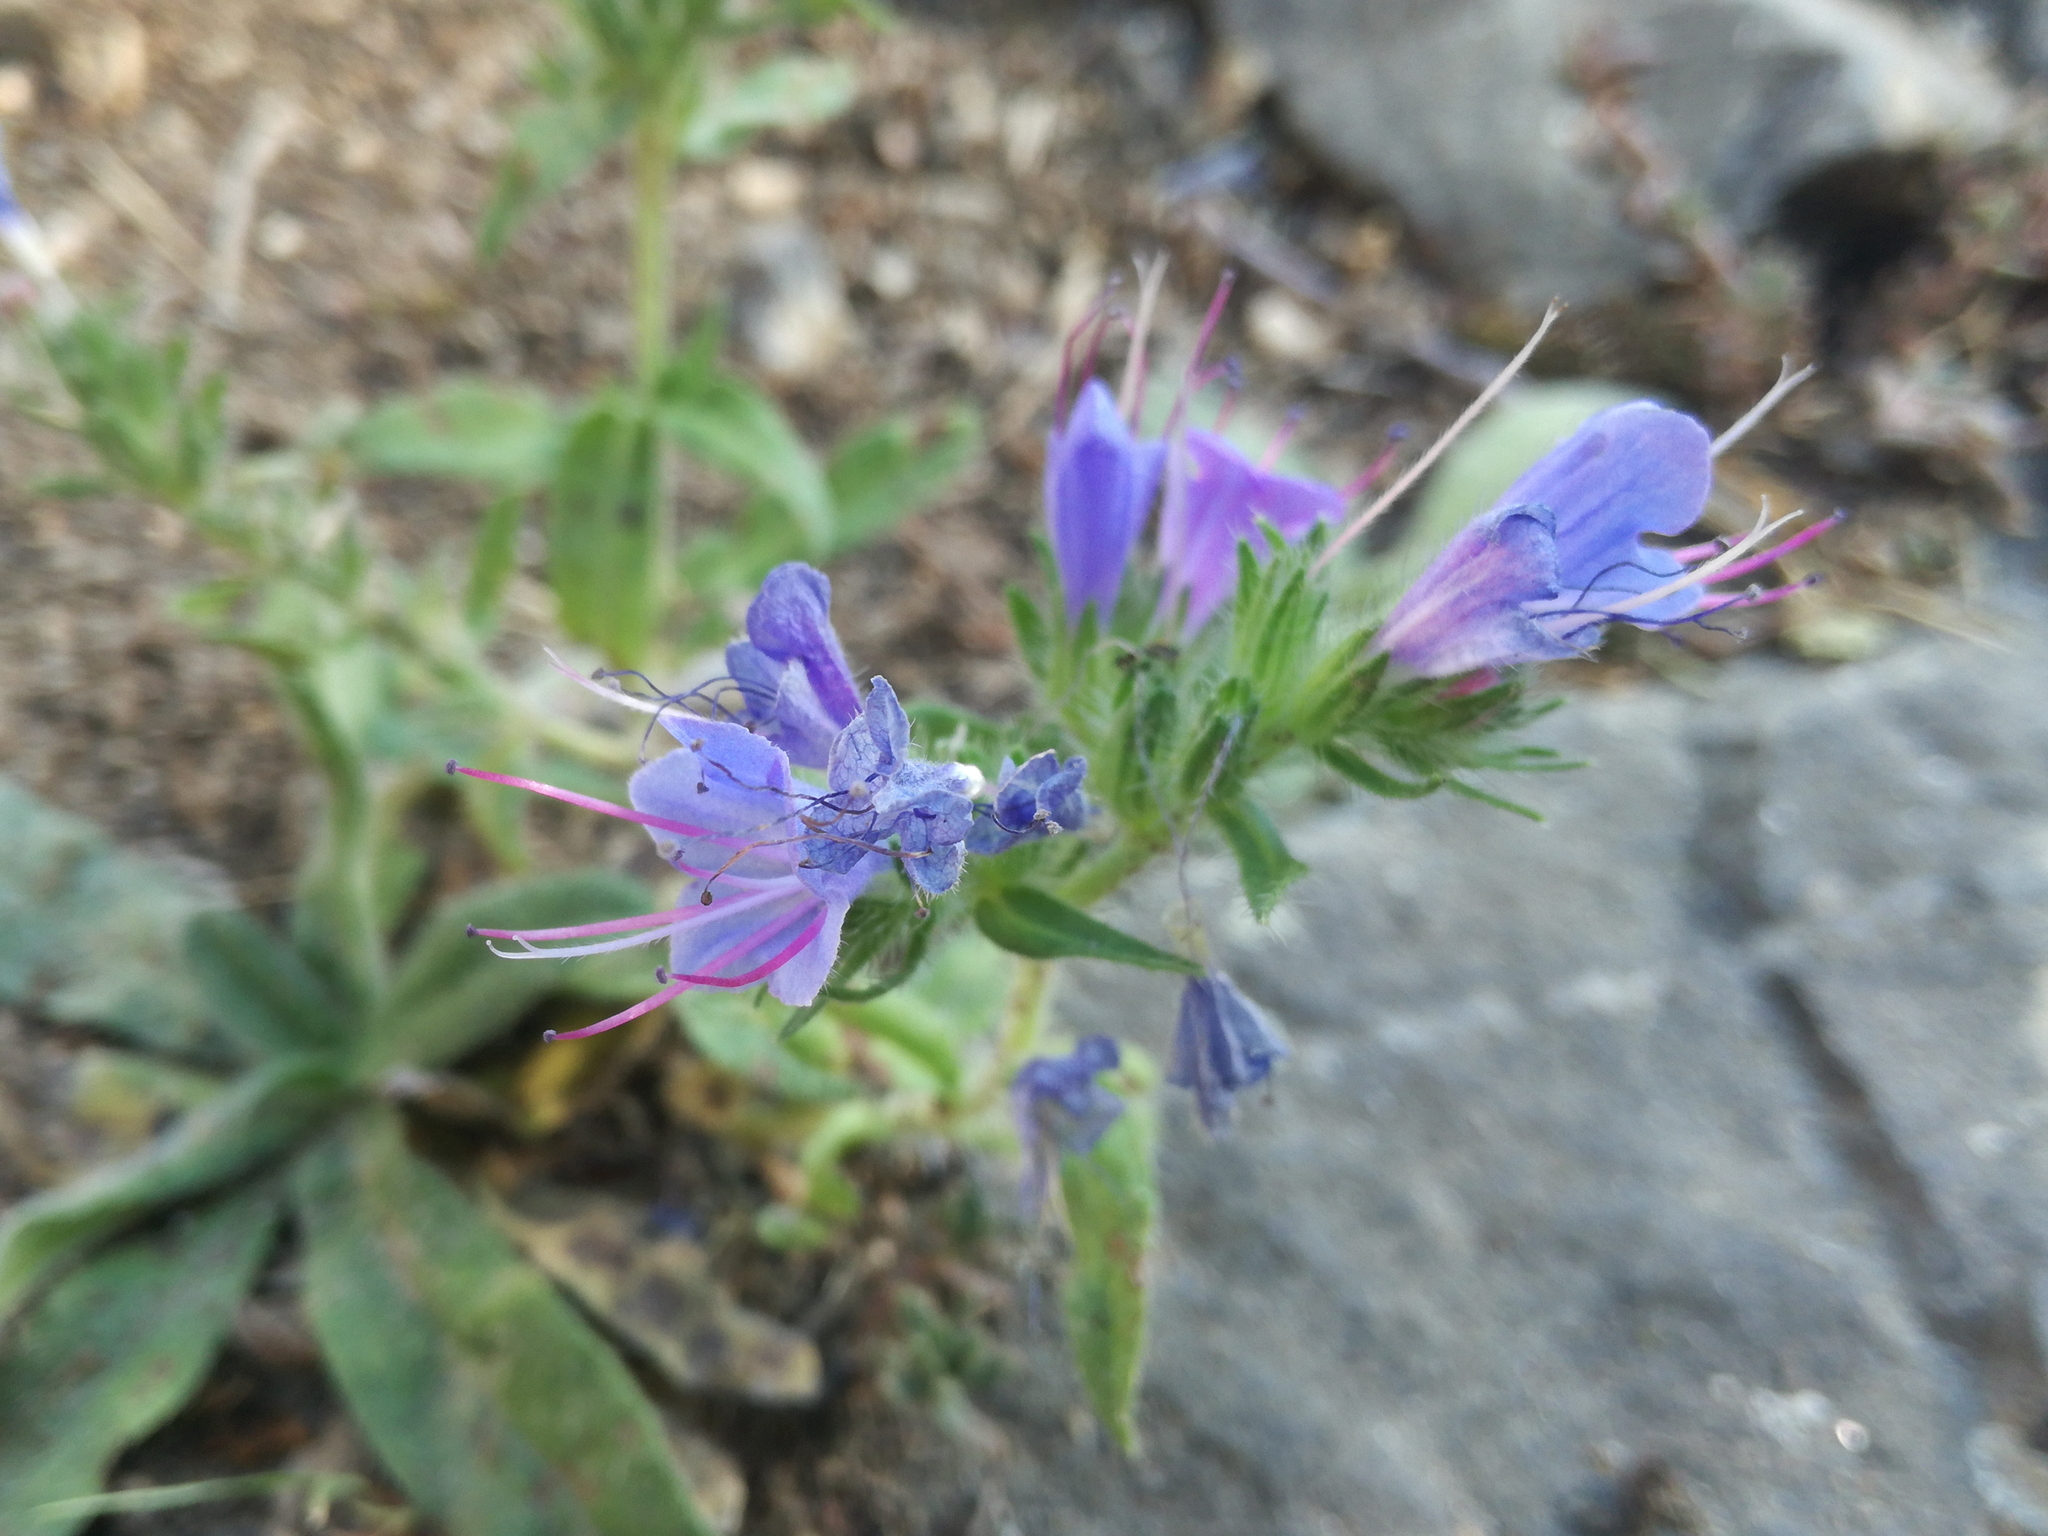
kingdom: Plantae
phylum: Tracheophyta
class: Magnoliopsida
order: Boraginales
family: Boraginaceae
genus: Echium
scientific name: Echium vulgare
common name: Common viper's bugloss
